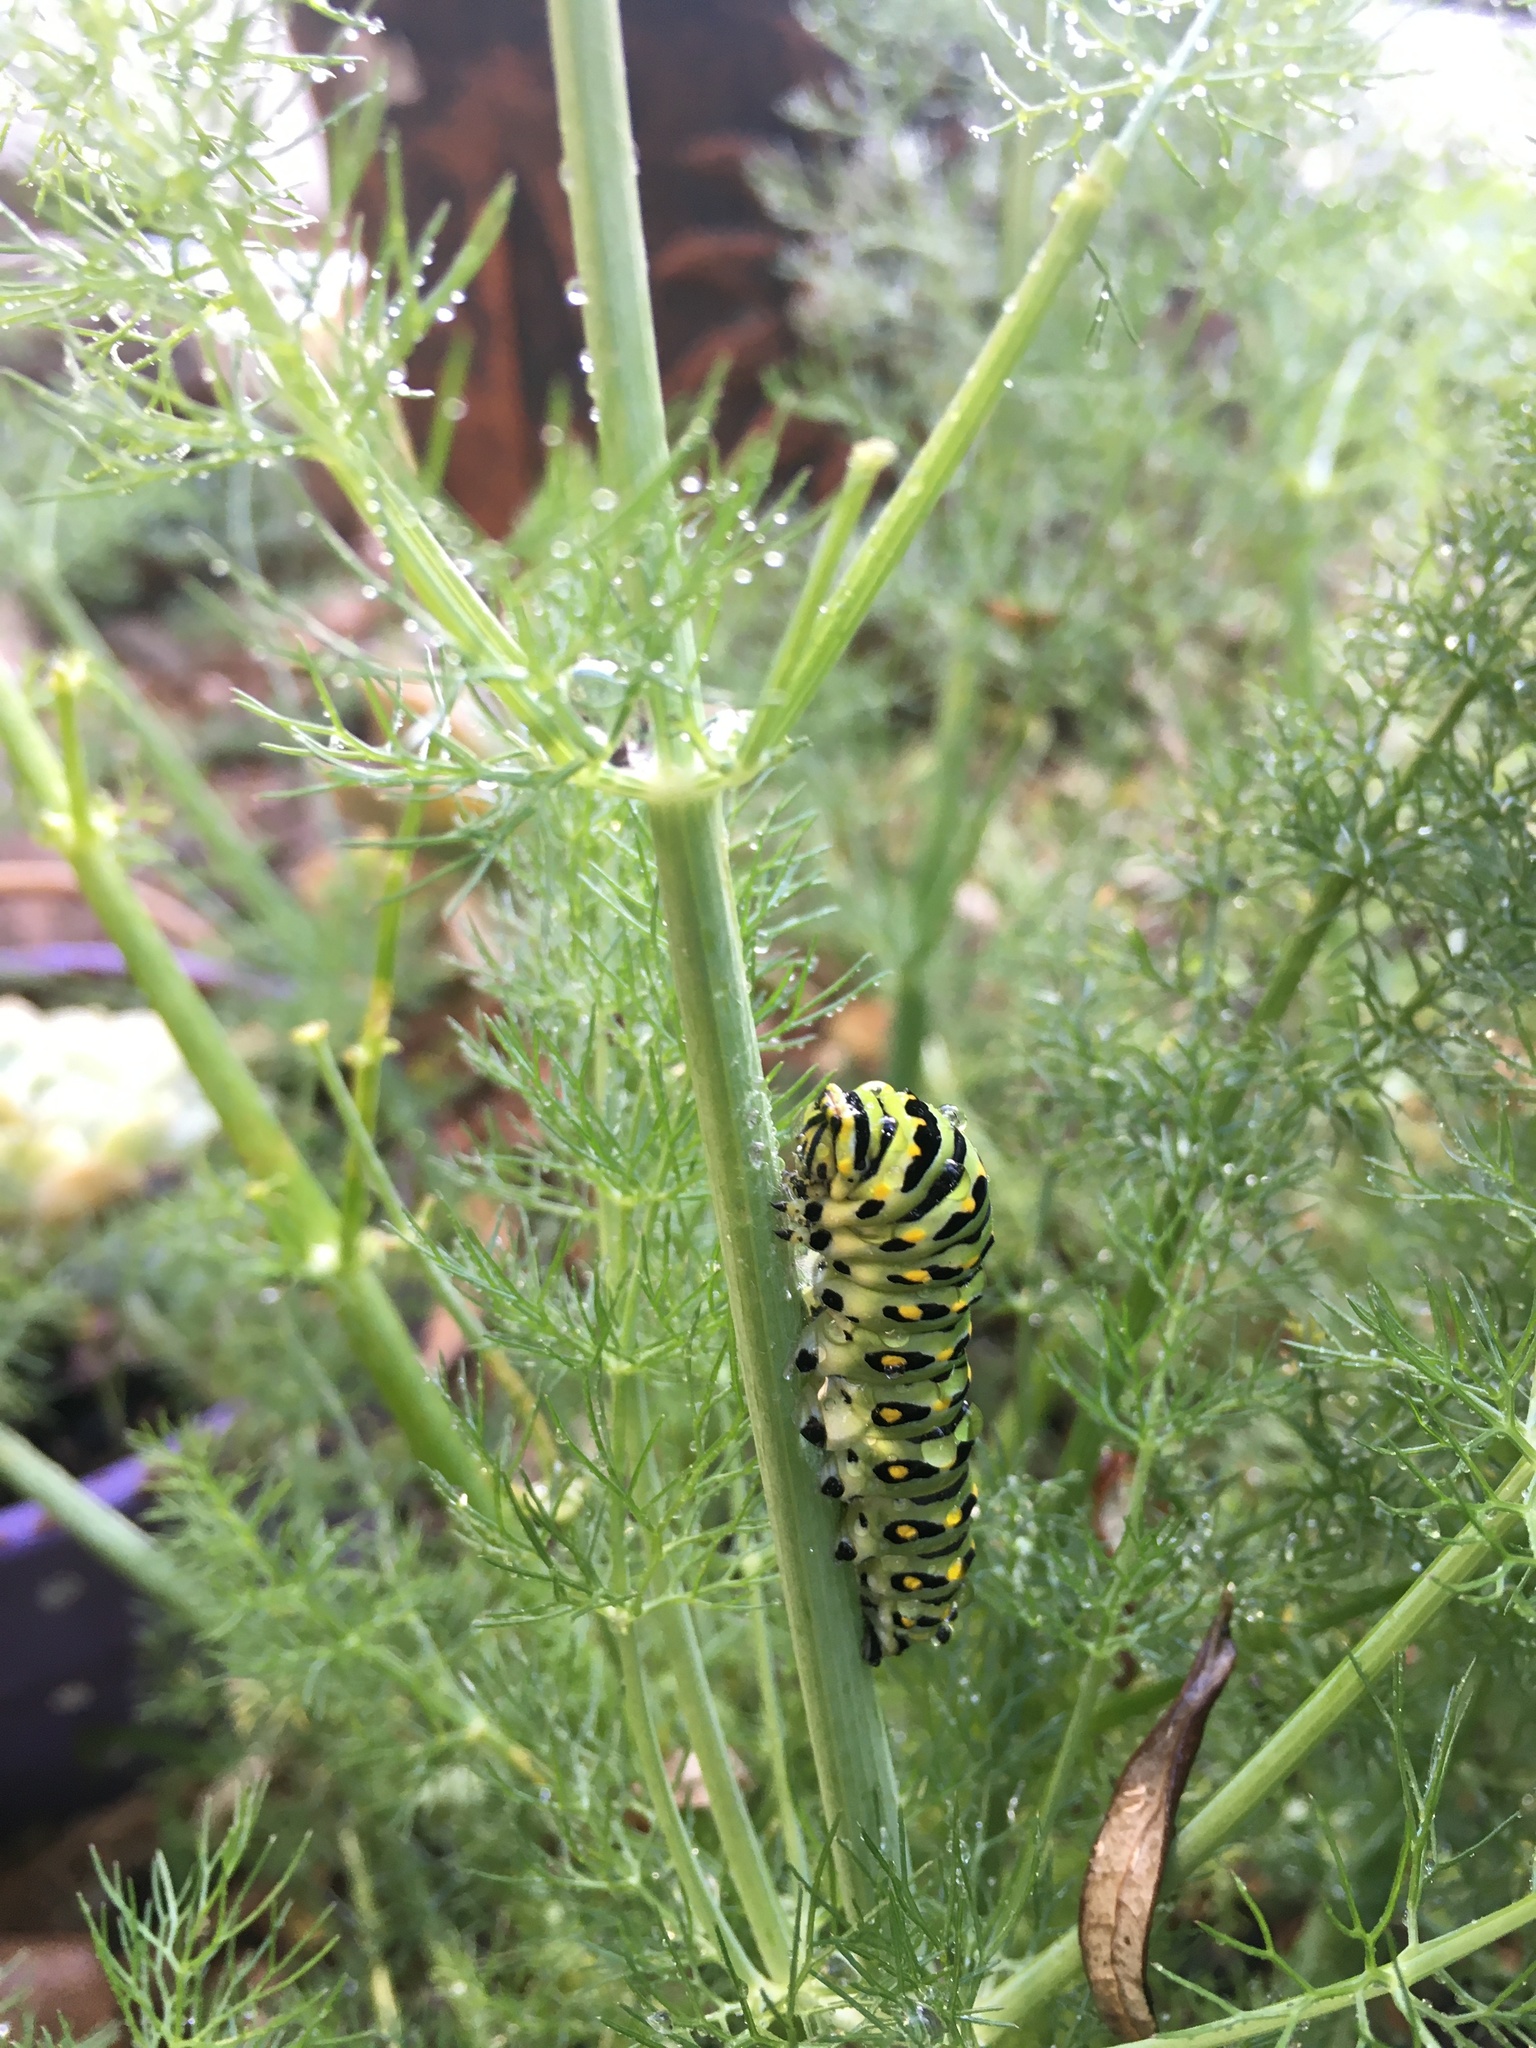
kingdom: Animalia
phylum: Arthropoda
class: Insecta
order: Lepidoptera
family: Papilionidae
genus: Papilio
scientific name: Papilio zelicaon
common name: Anise swallowtail
